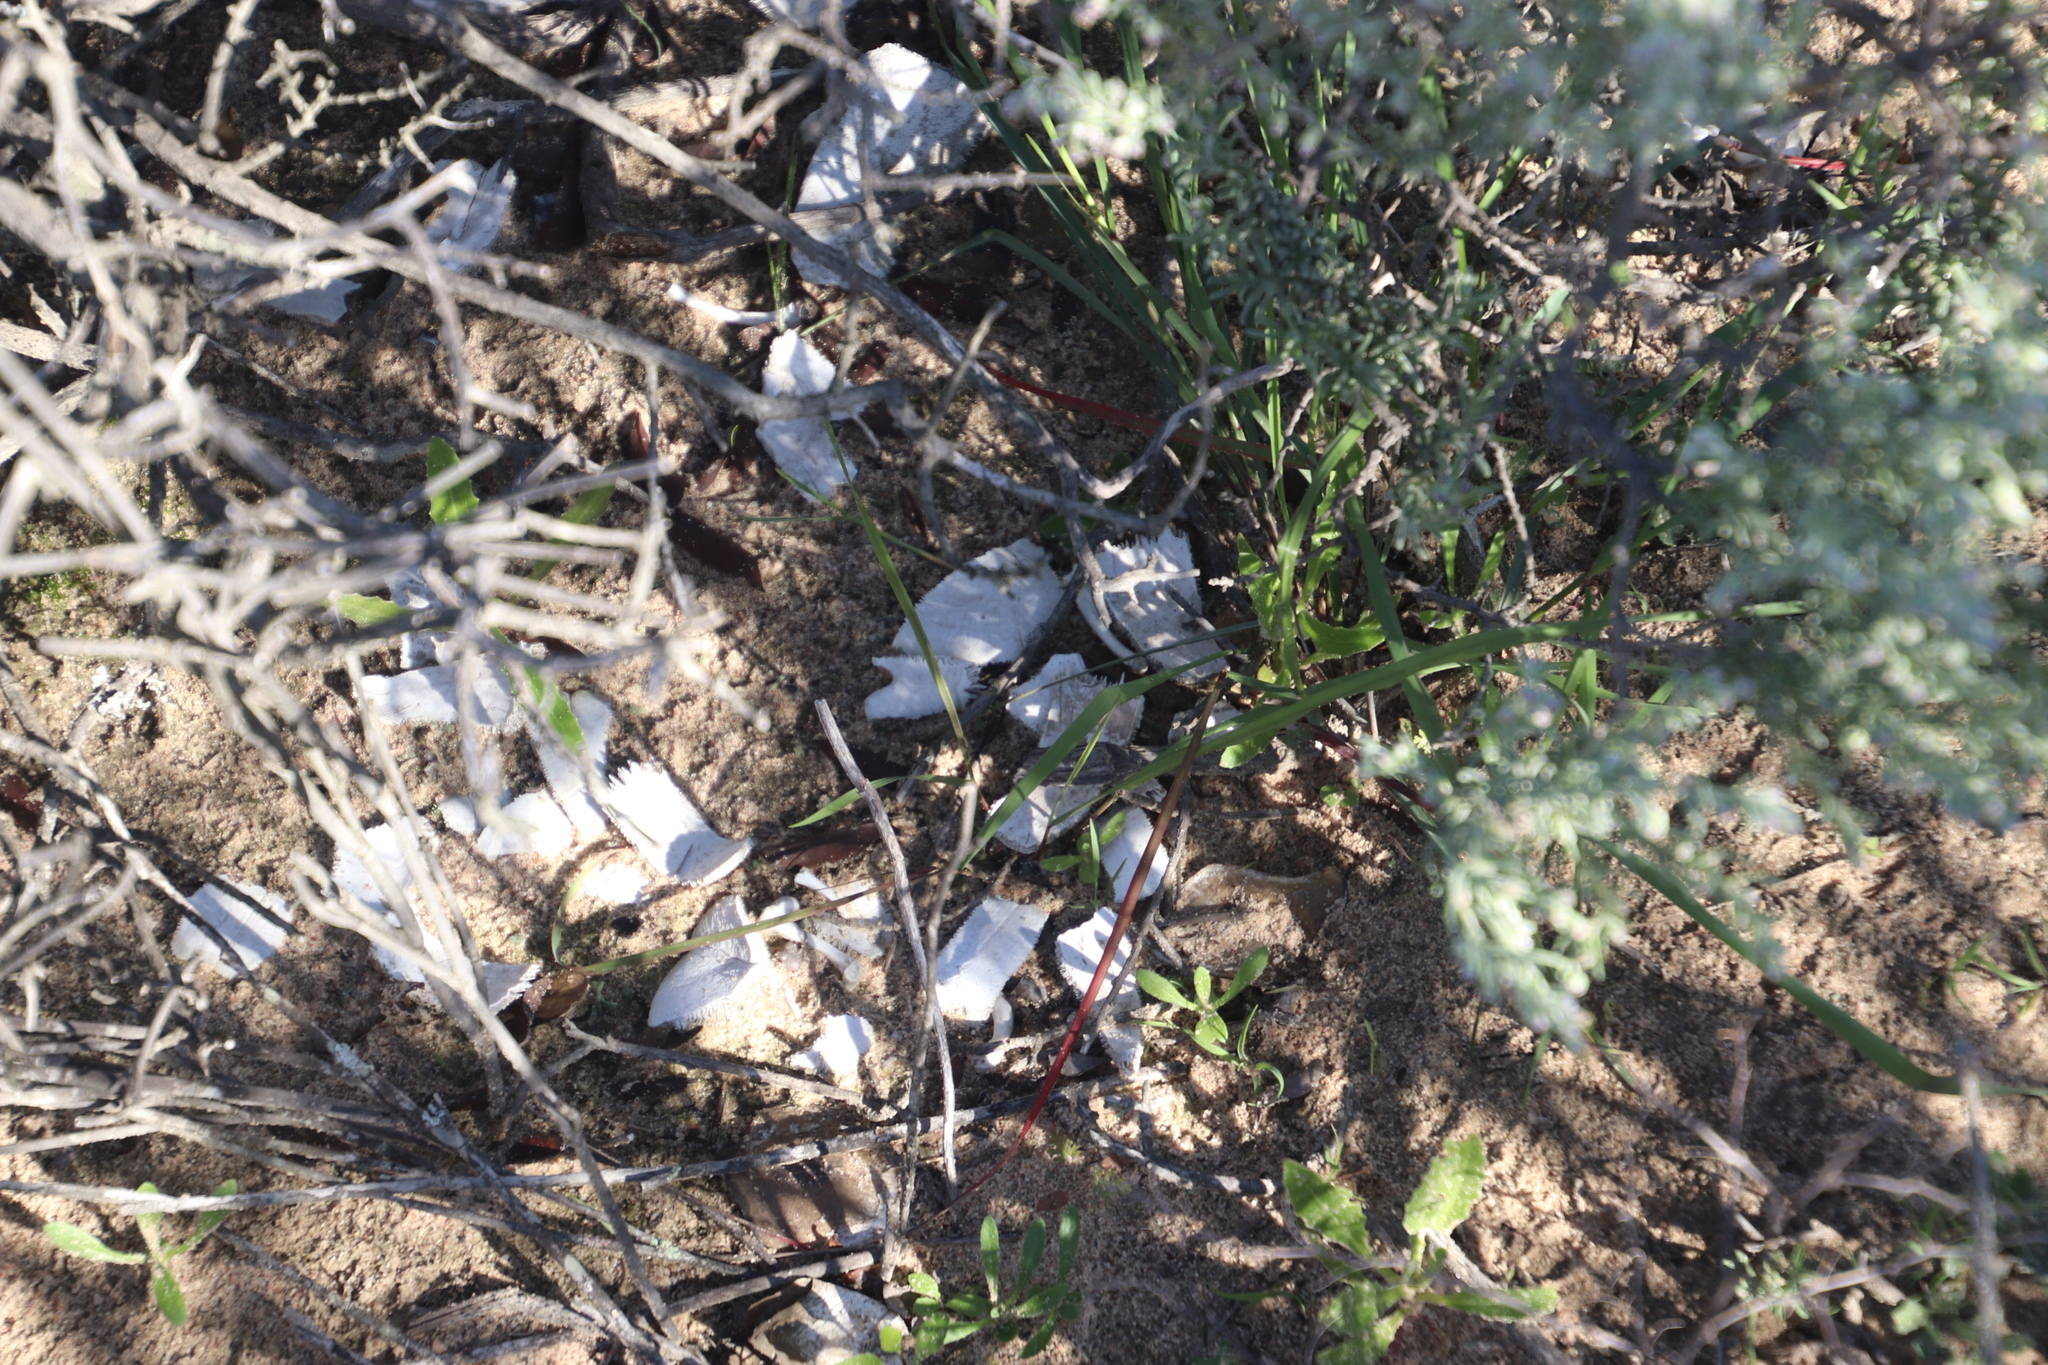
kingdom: Animalia
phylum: Chordata
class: Testudines
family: Testudinidae
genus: Chersina
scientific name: Chersina angulata
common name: South african bowsprit tortoise
